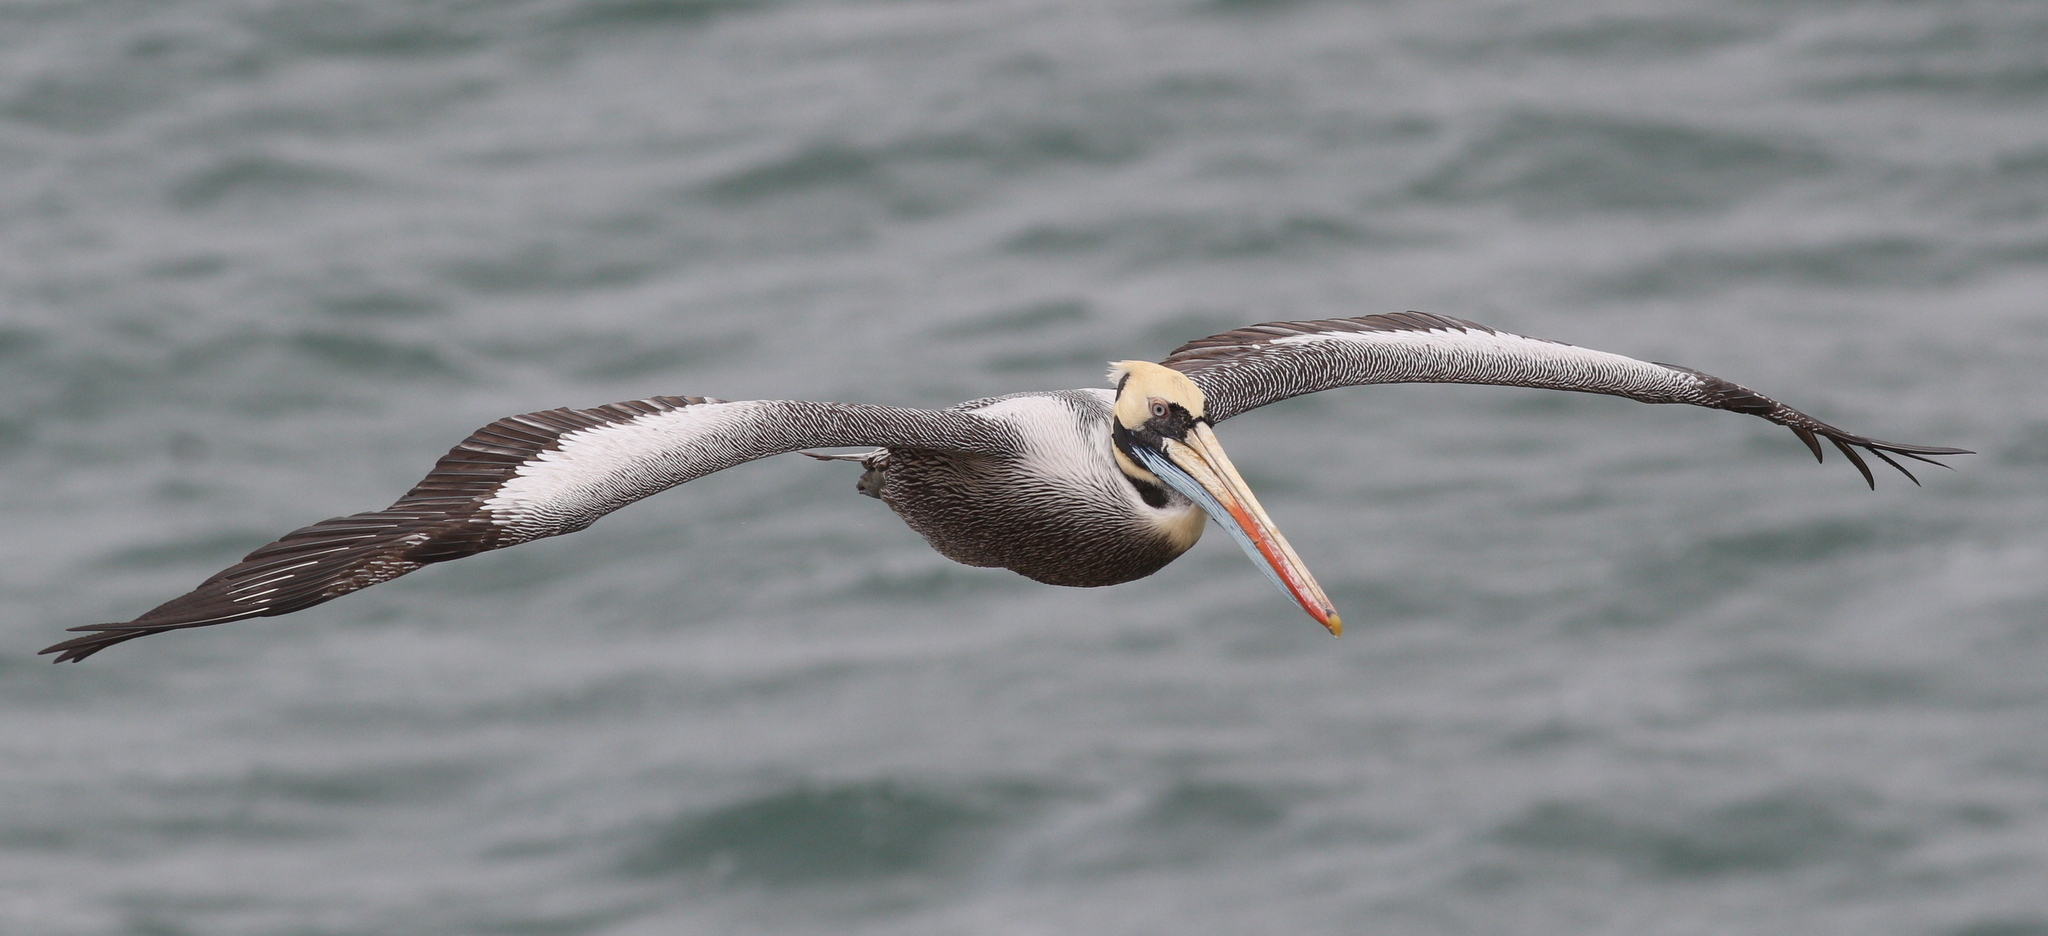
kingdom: Animalia
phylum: Chordata
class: Aves
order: Pelecaniformes
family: Pelecanidae
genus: Pelecanus
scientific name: Pelecanus thagus
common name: Peruvian pelican
